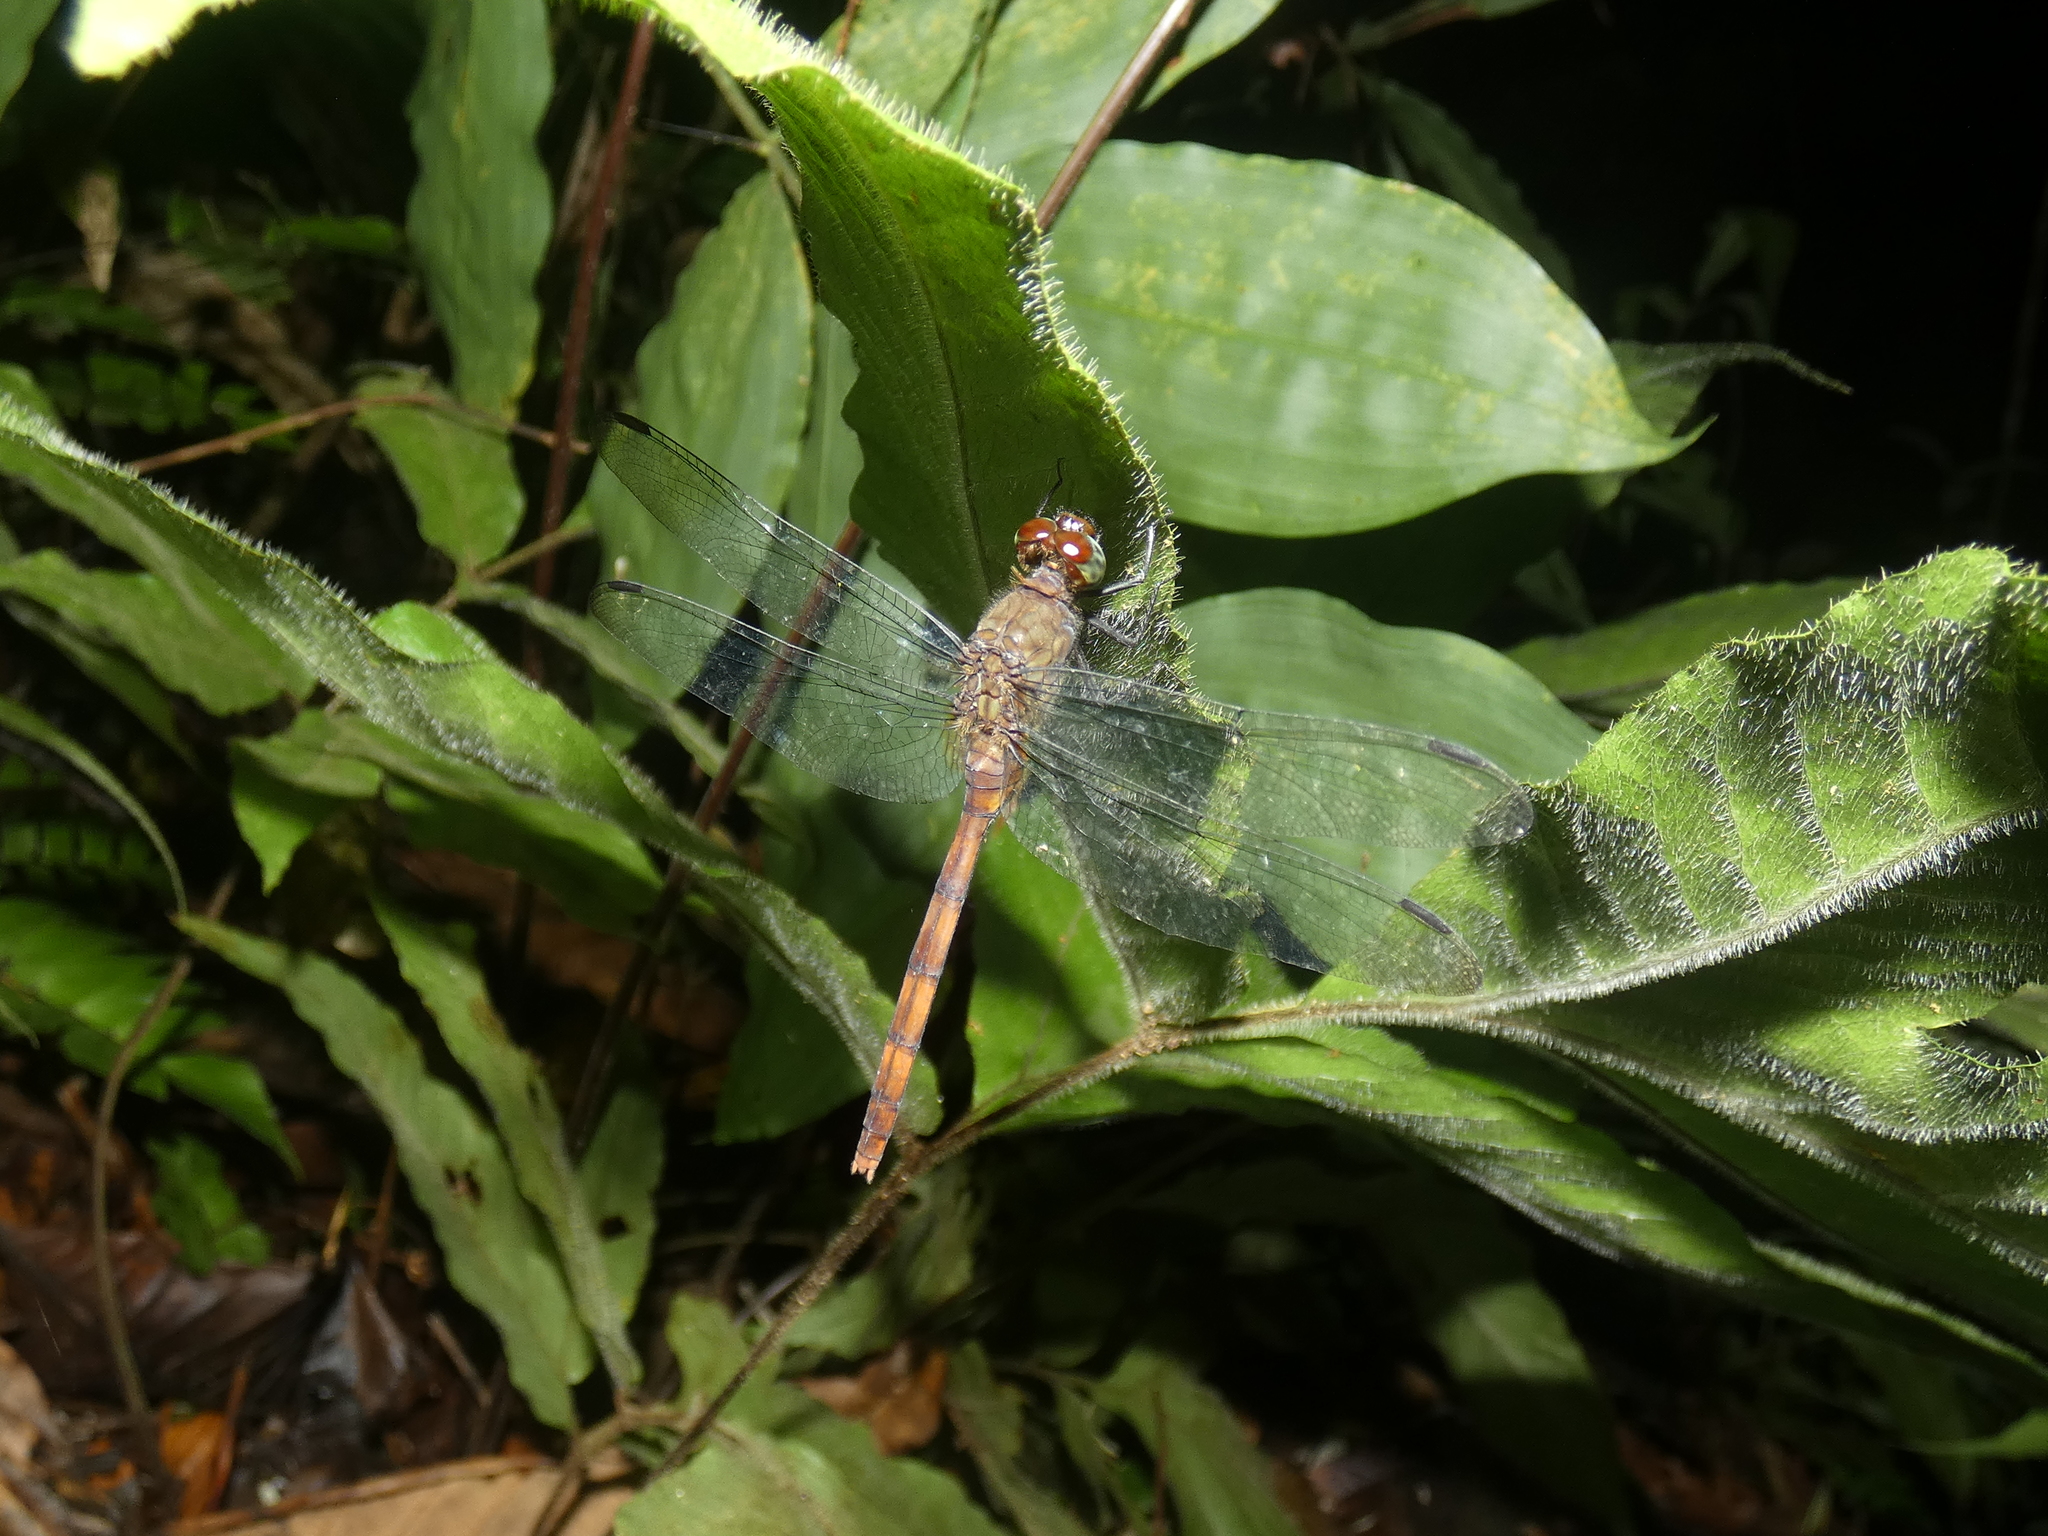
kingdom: Animalia
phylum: Arthropoda
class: Insecta
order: Odonata
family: Libellulidae
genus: Erythemis
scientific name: Erythemis haematogastra
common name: Red pondhawk
